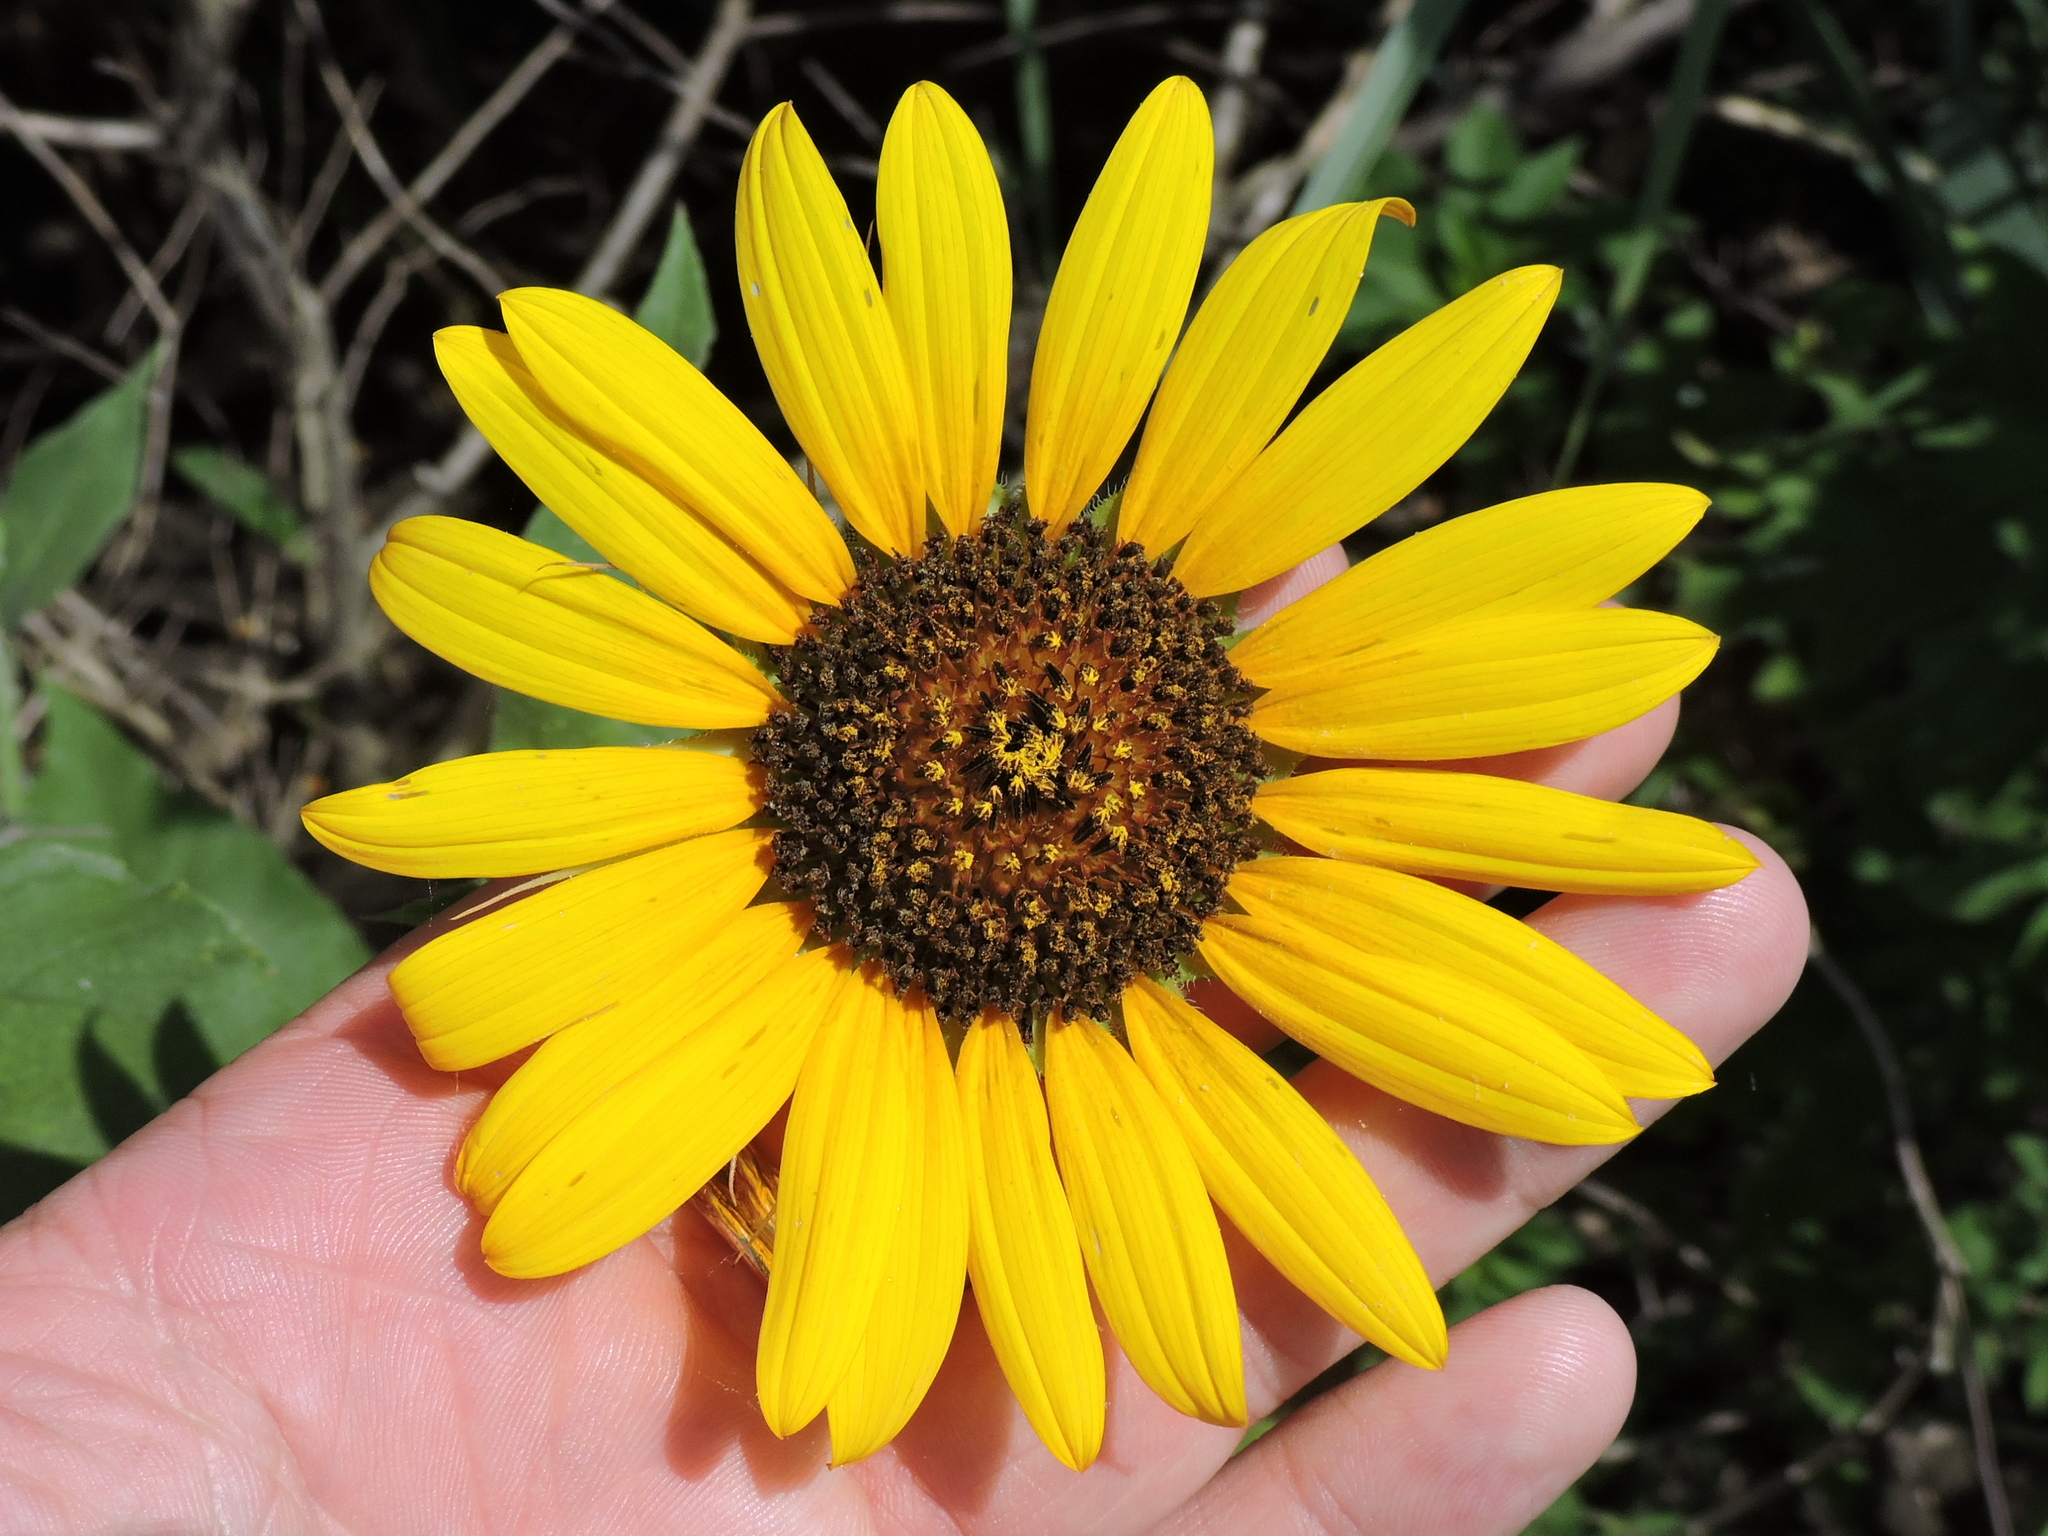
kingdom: Plantae
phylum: Tracheophyta
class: Magnoliopsida
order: Asterales
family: Asteraceae
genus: Helianthus
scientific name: Helianthus annuus
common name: Sunflower
